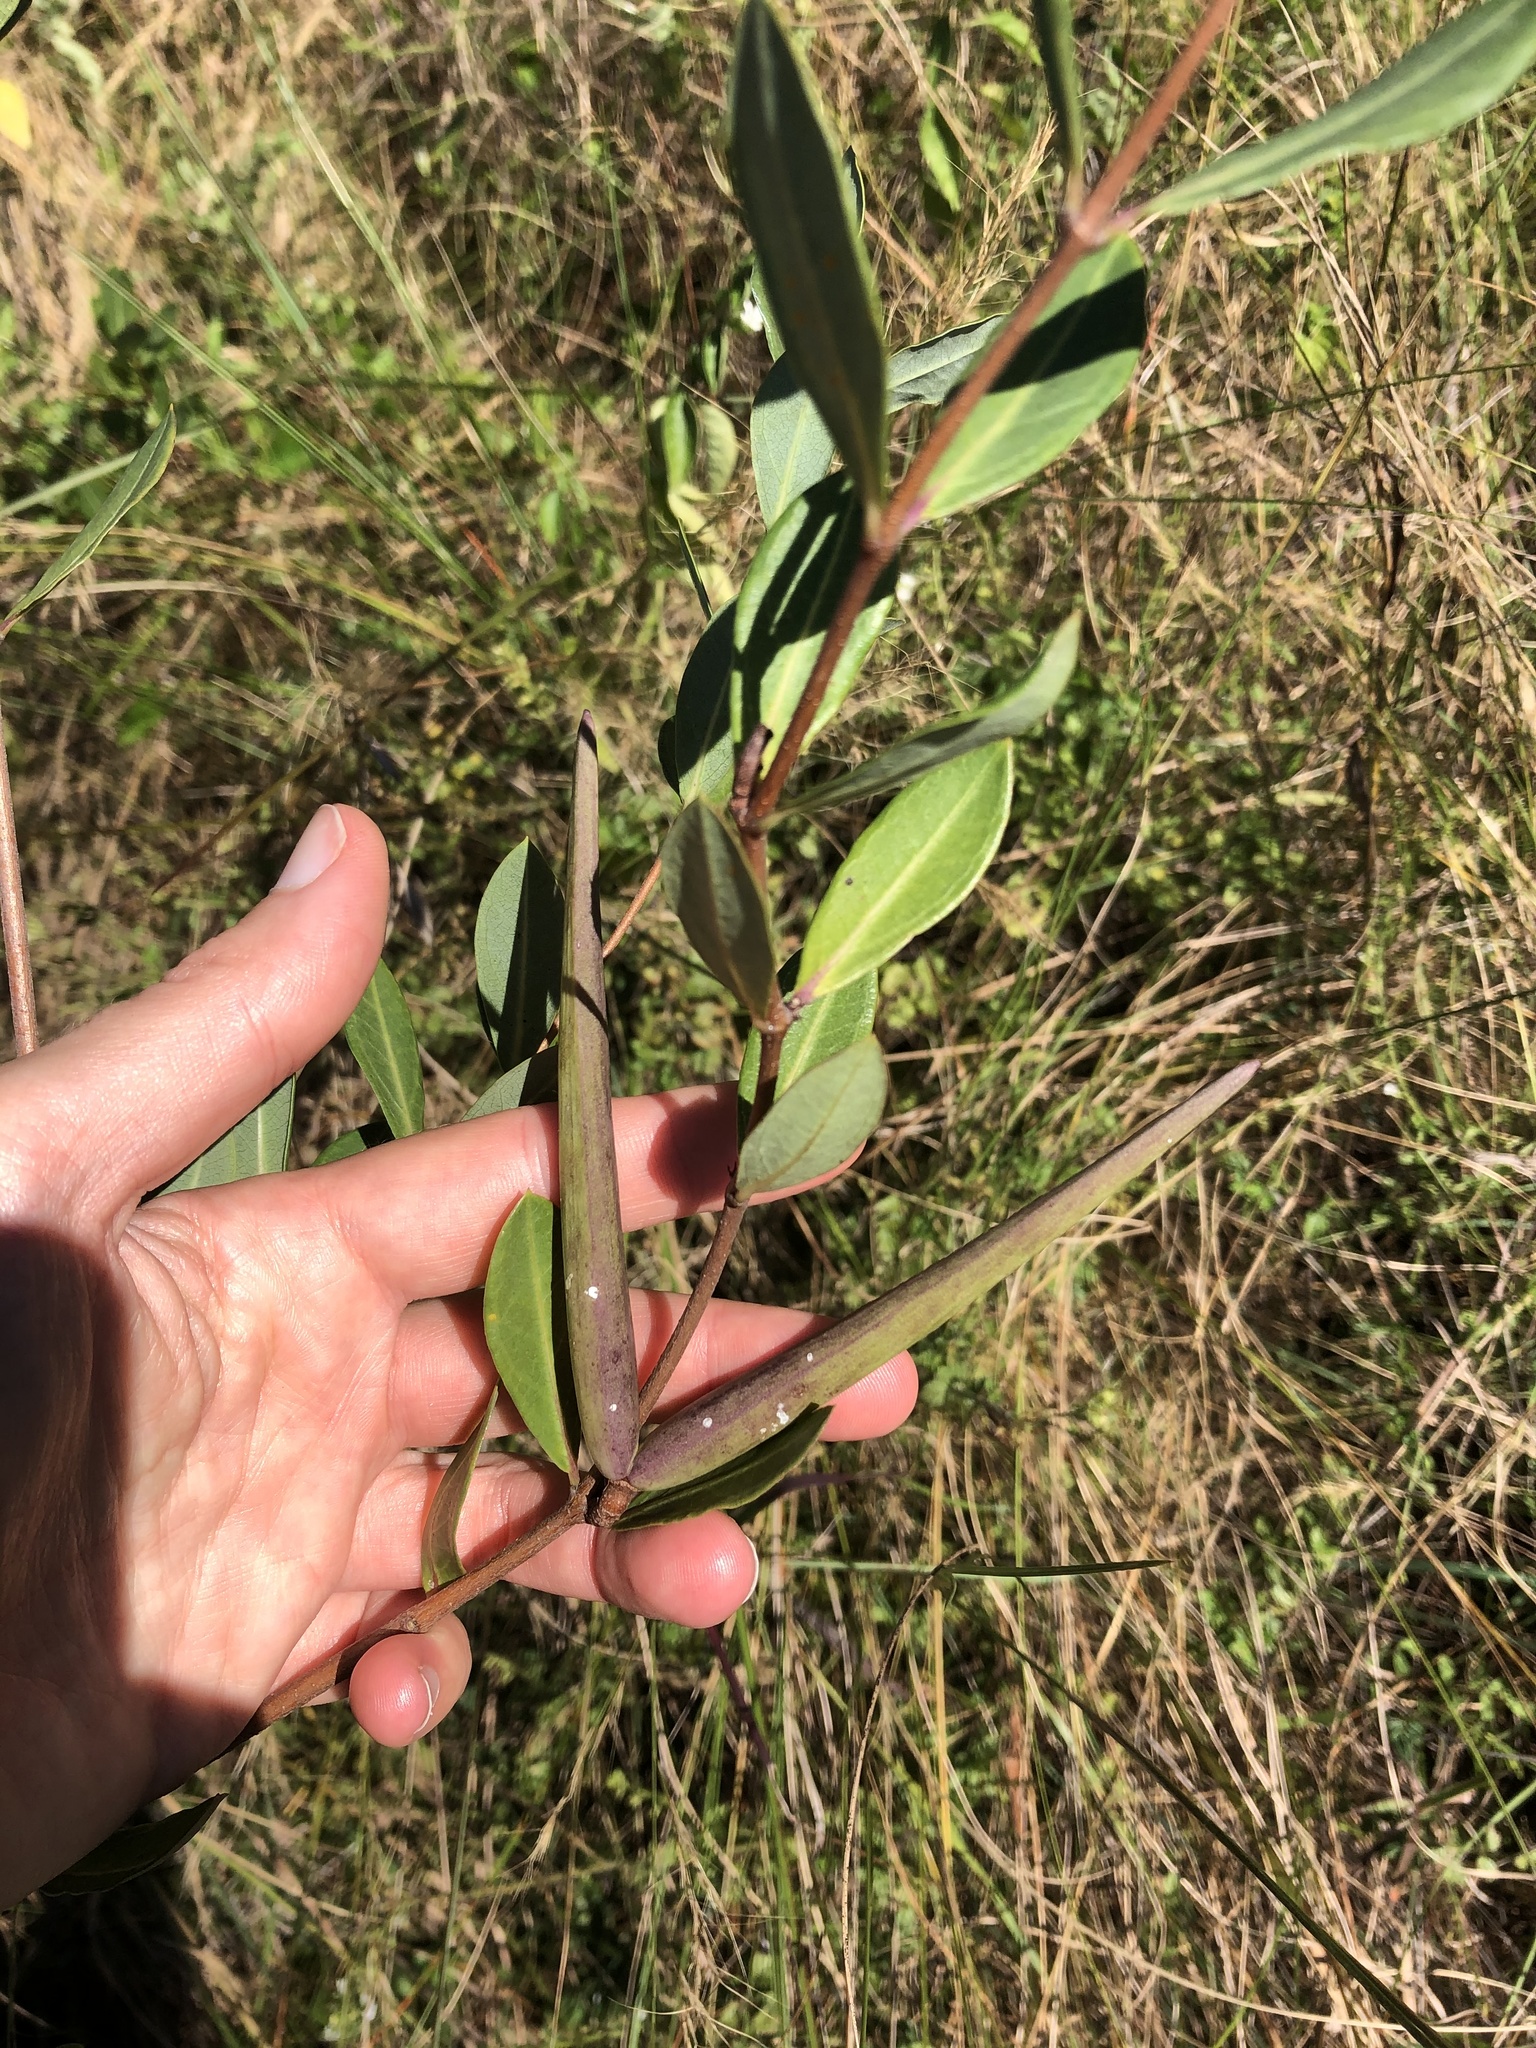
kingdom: Plantae
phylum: Tracheophyta
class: Magnoliopsida
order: Gentianales
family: Apocynaceae
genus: Cryptolepis
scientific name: Cryptolepis oblongifolia
